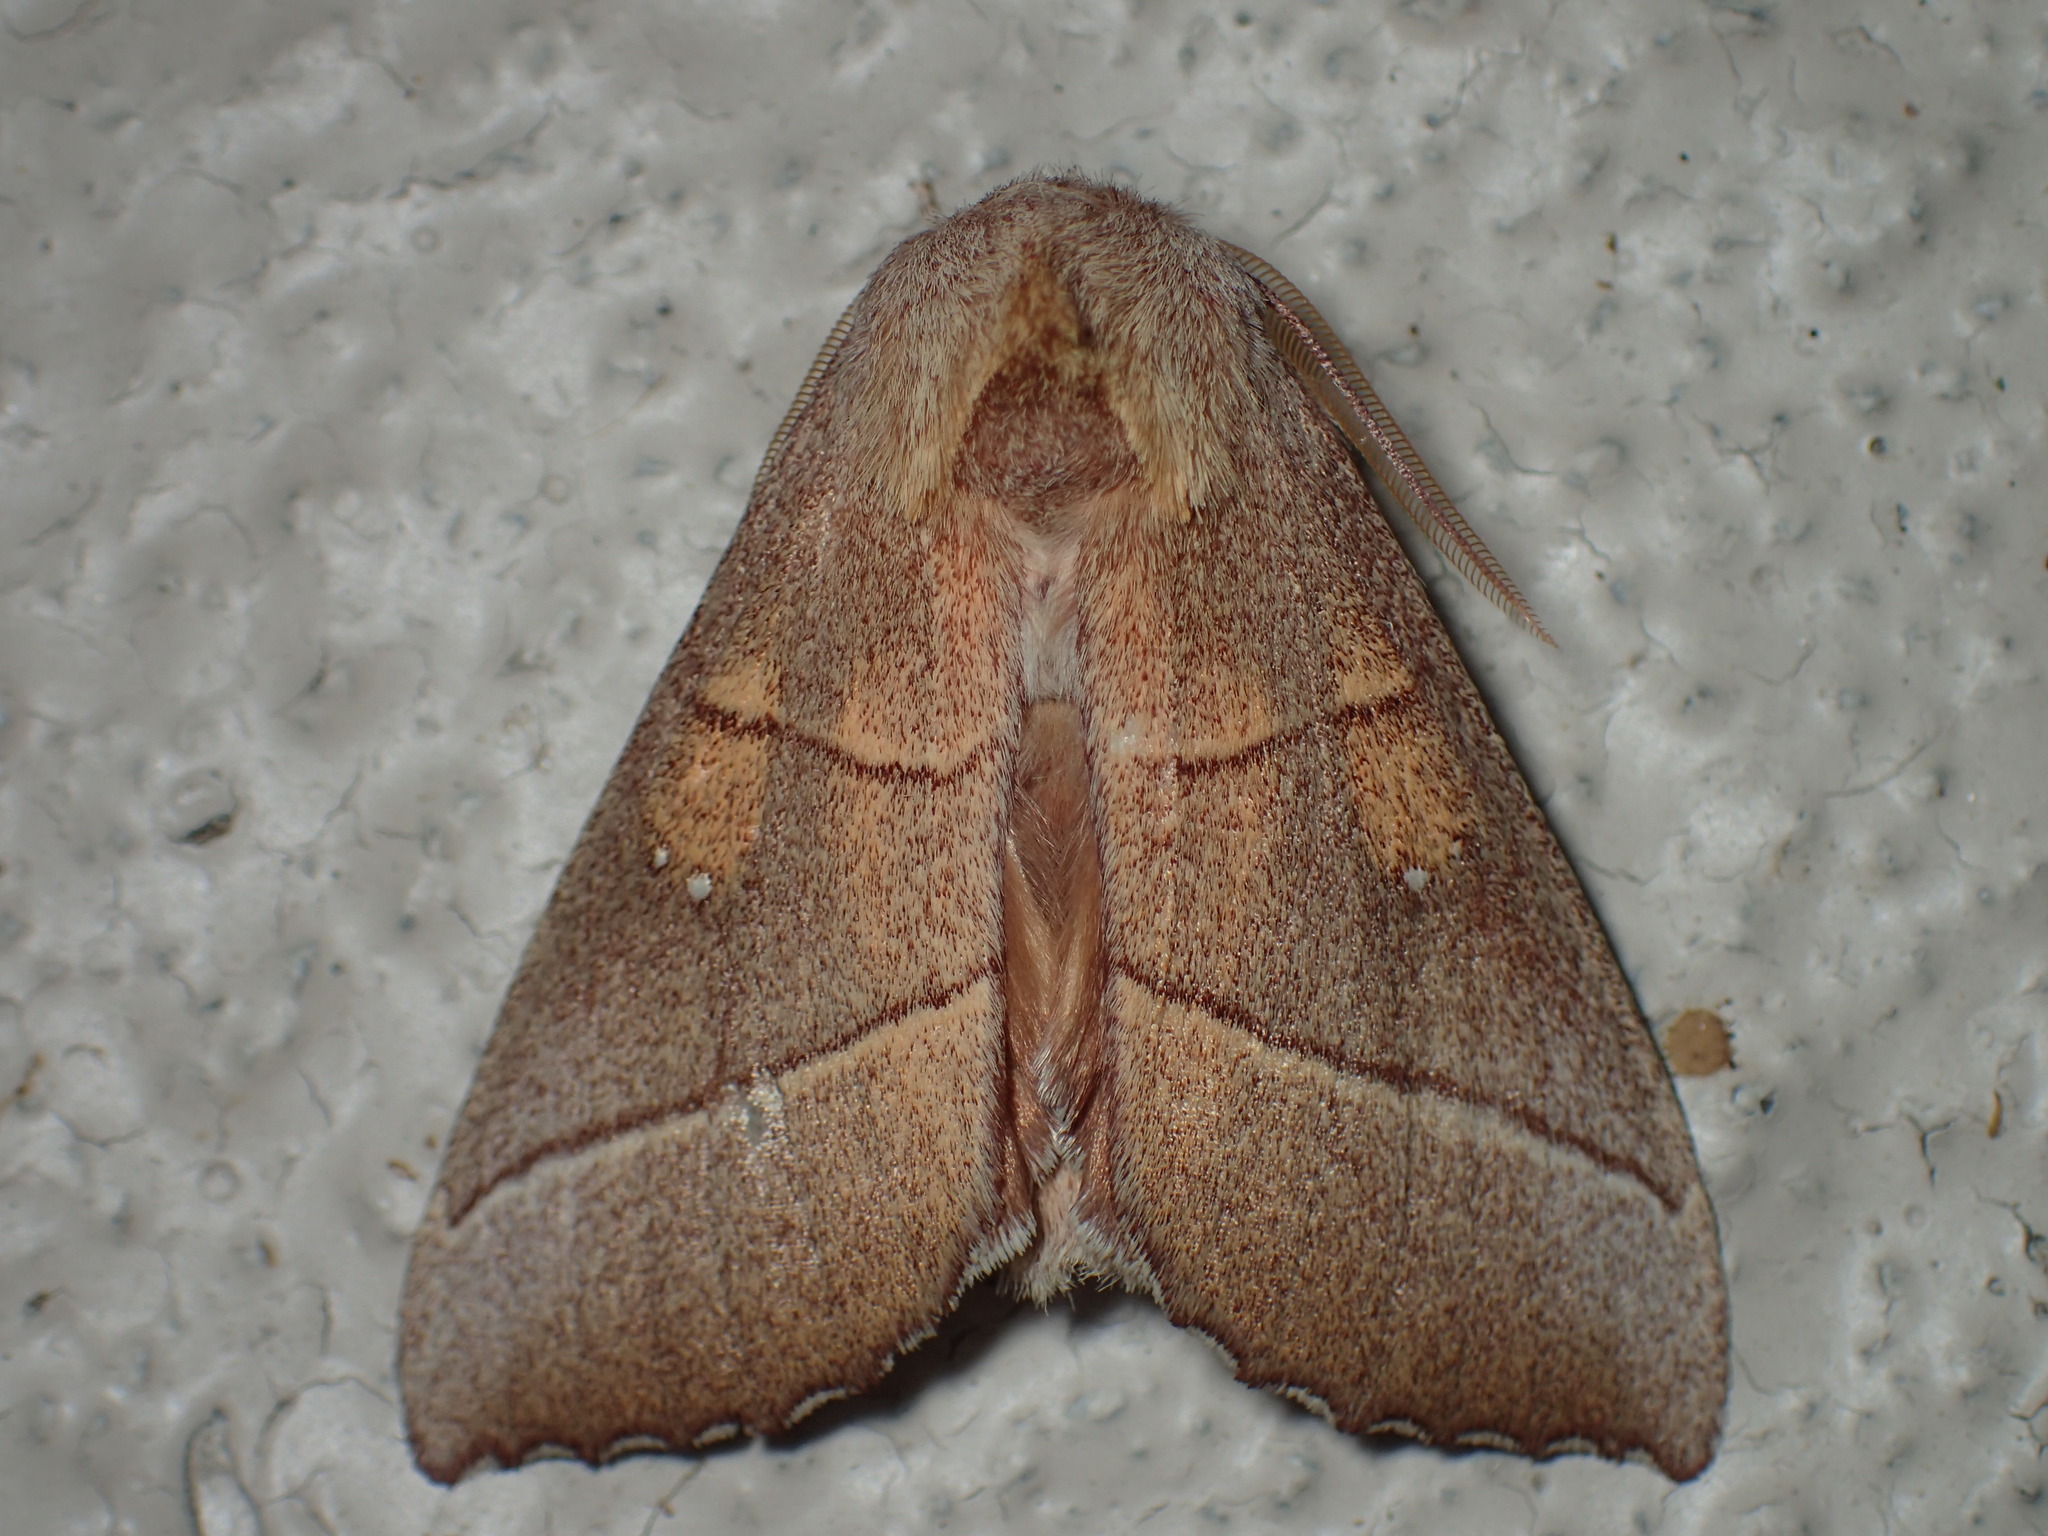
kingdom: Animalia
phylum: Arthropoda
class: Insecta
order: Lepidoptera
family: Notodontidae
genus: Nadata
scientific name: Nadata gibbosa
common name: White-dotted prominent
